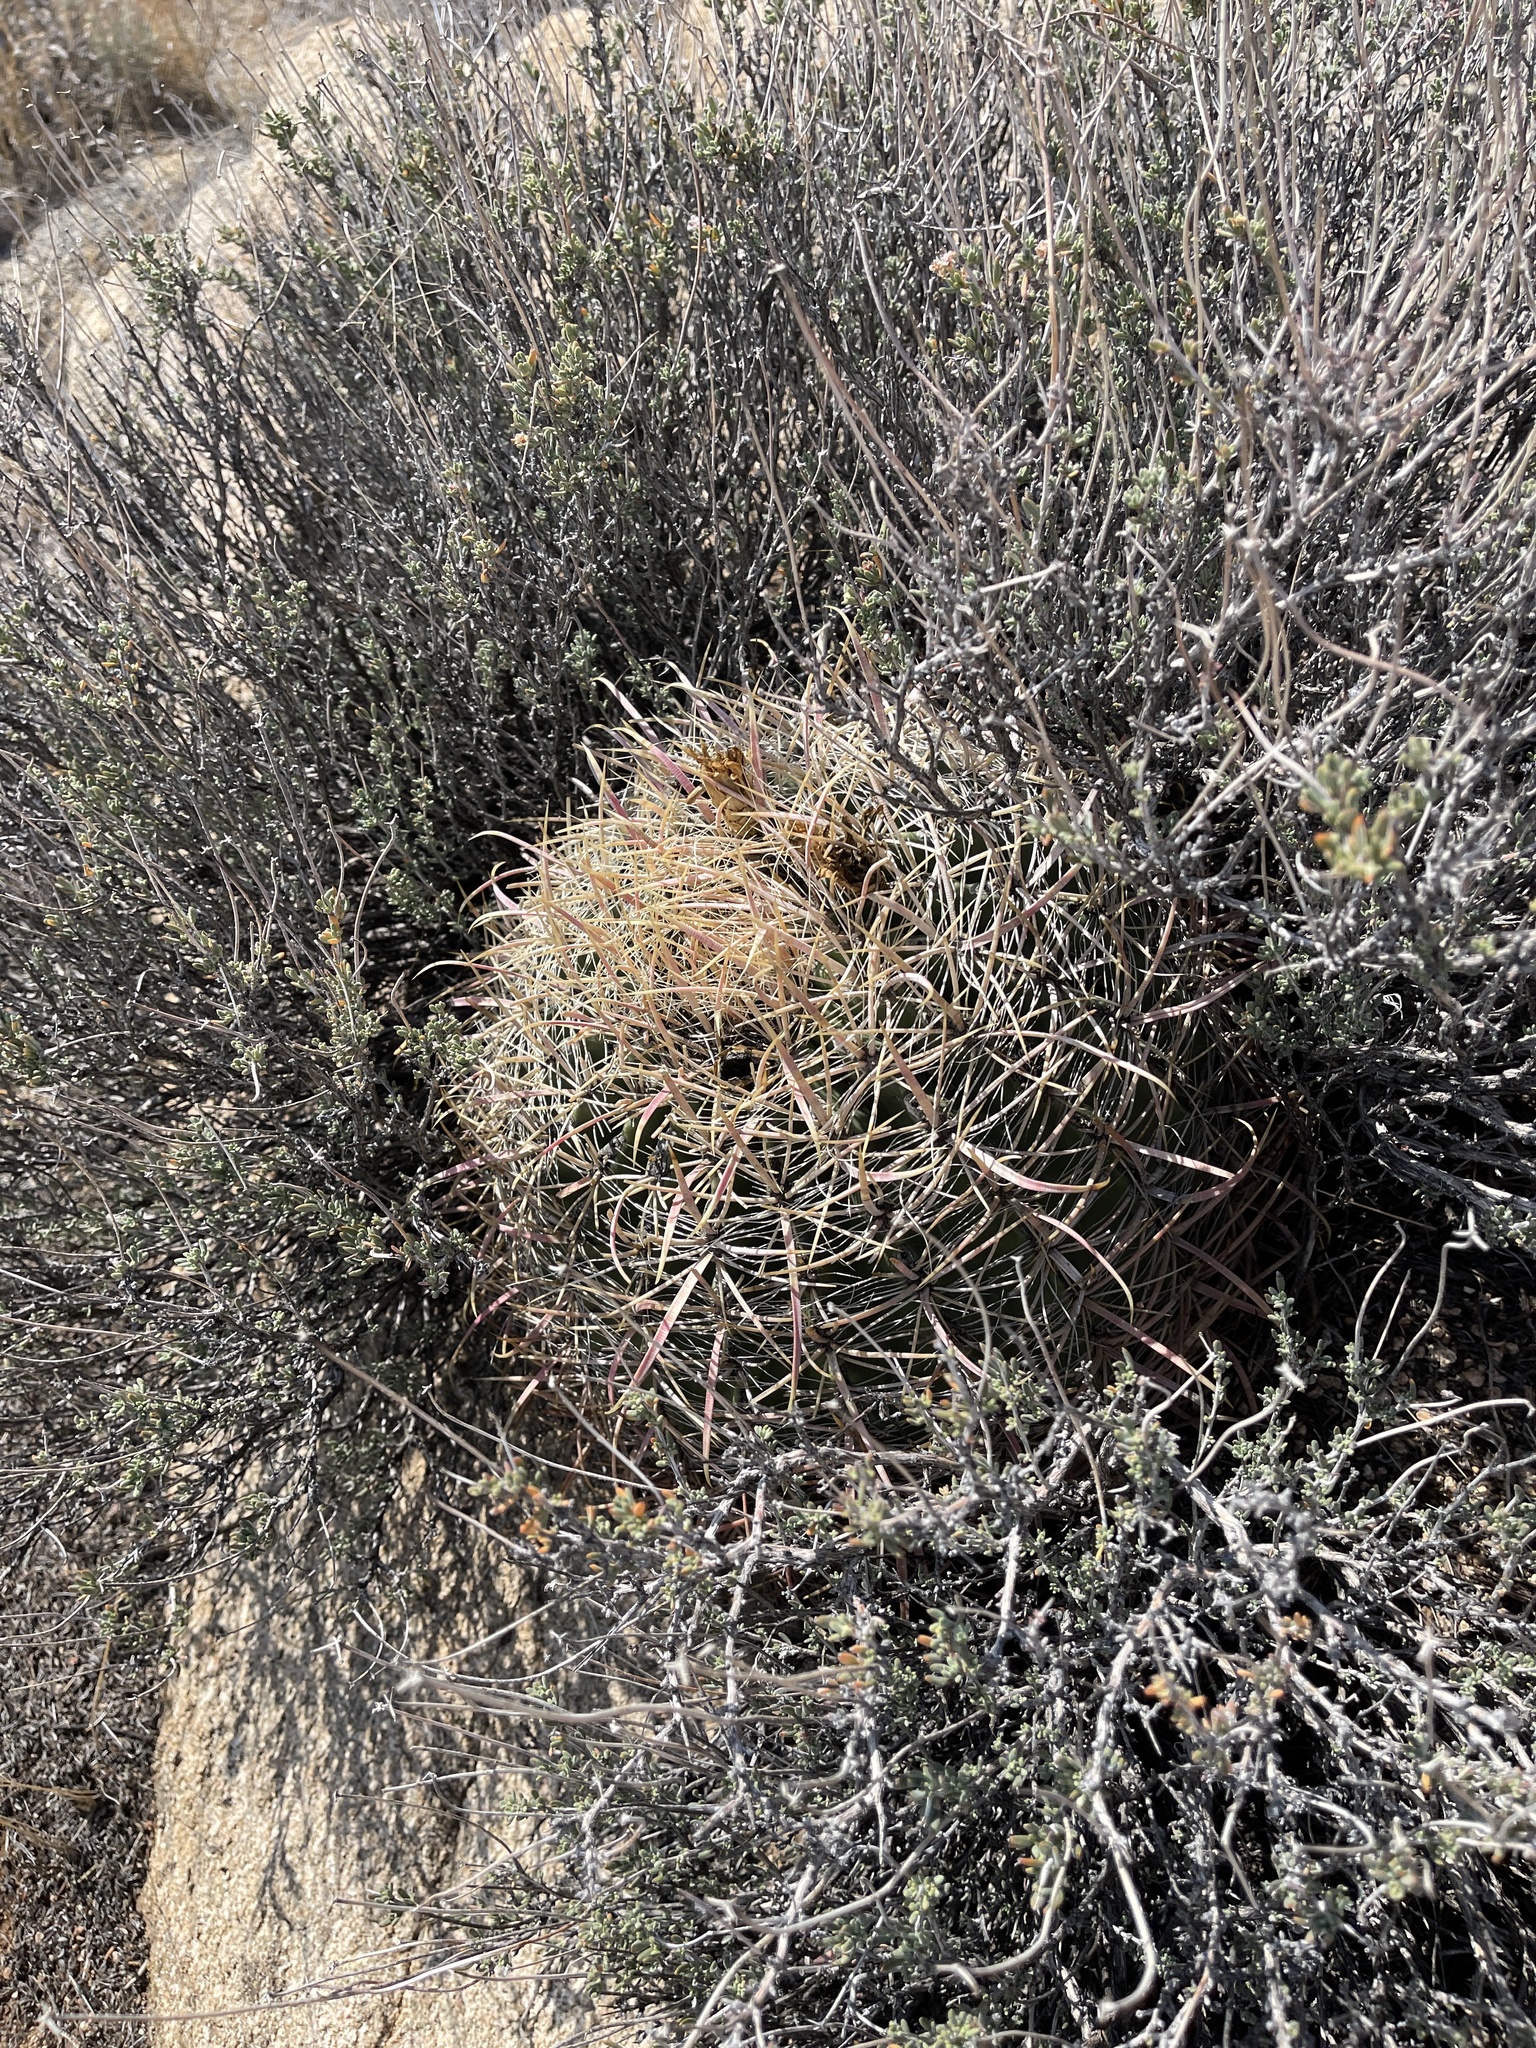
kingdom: Plantae
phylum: Tracheophyta
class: Magnoliopsida
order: Caryophyllales
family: Cactaceae
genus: Ferocactus
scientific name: Ferocactus cylindraceus
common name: California barrel cactus
